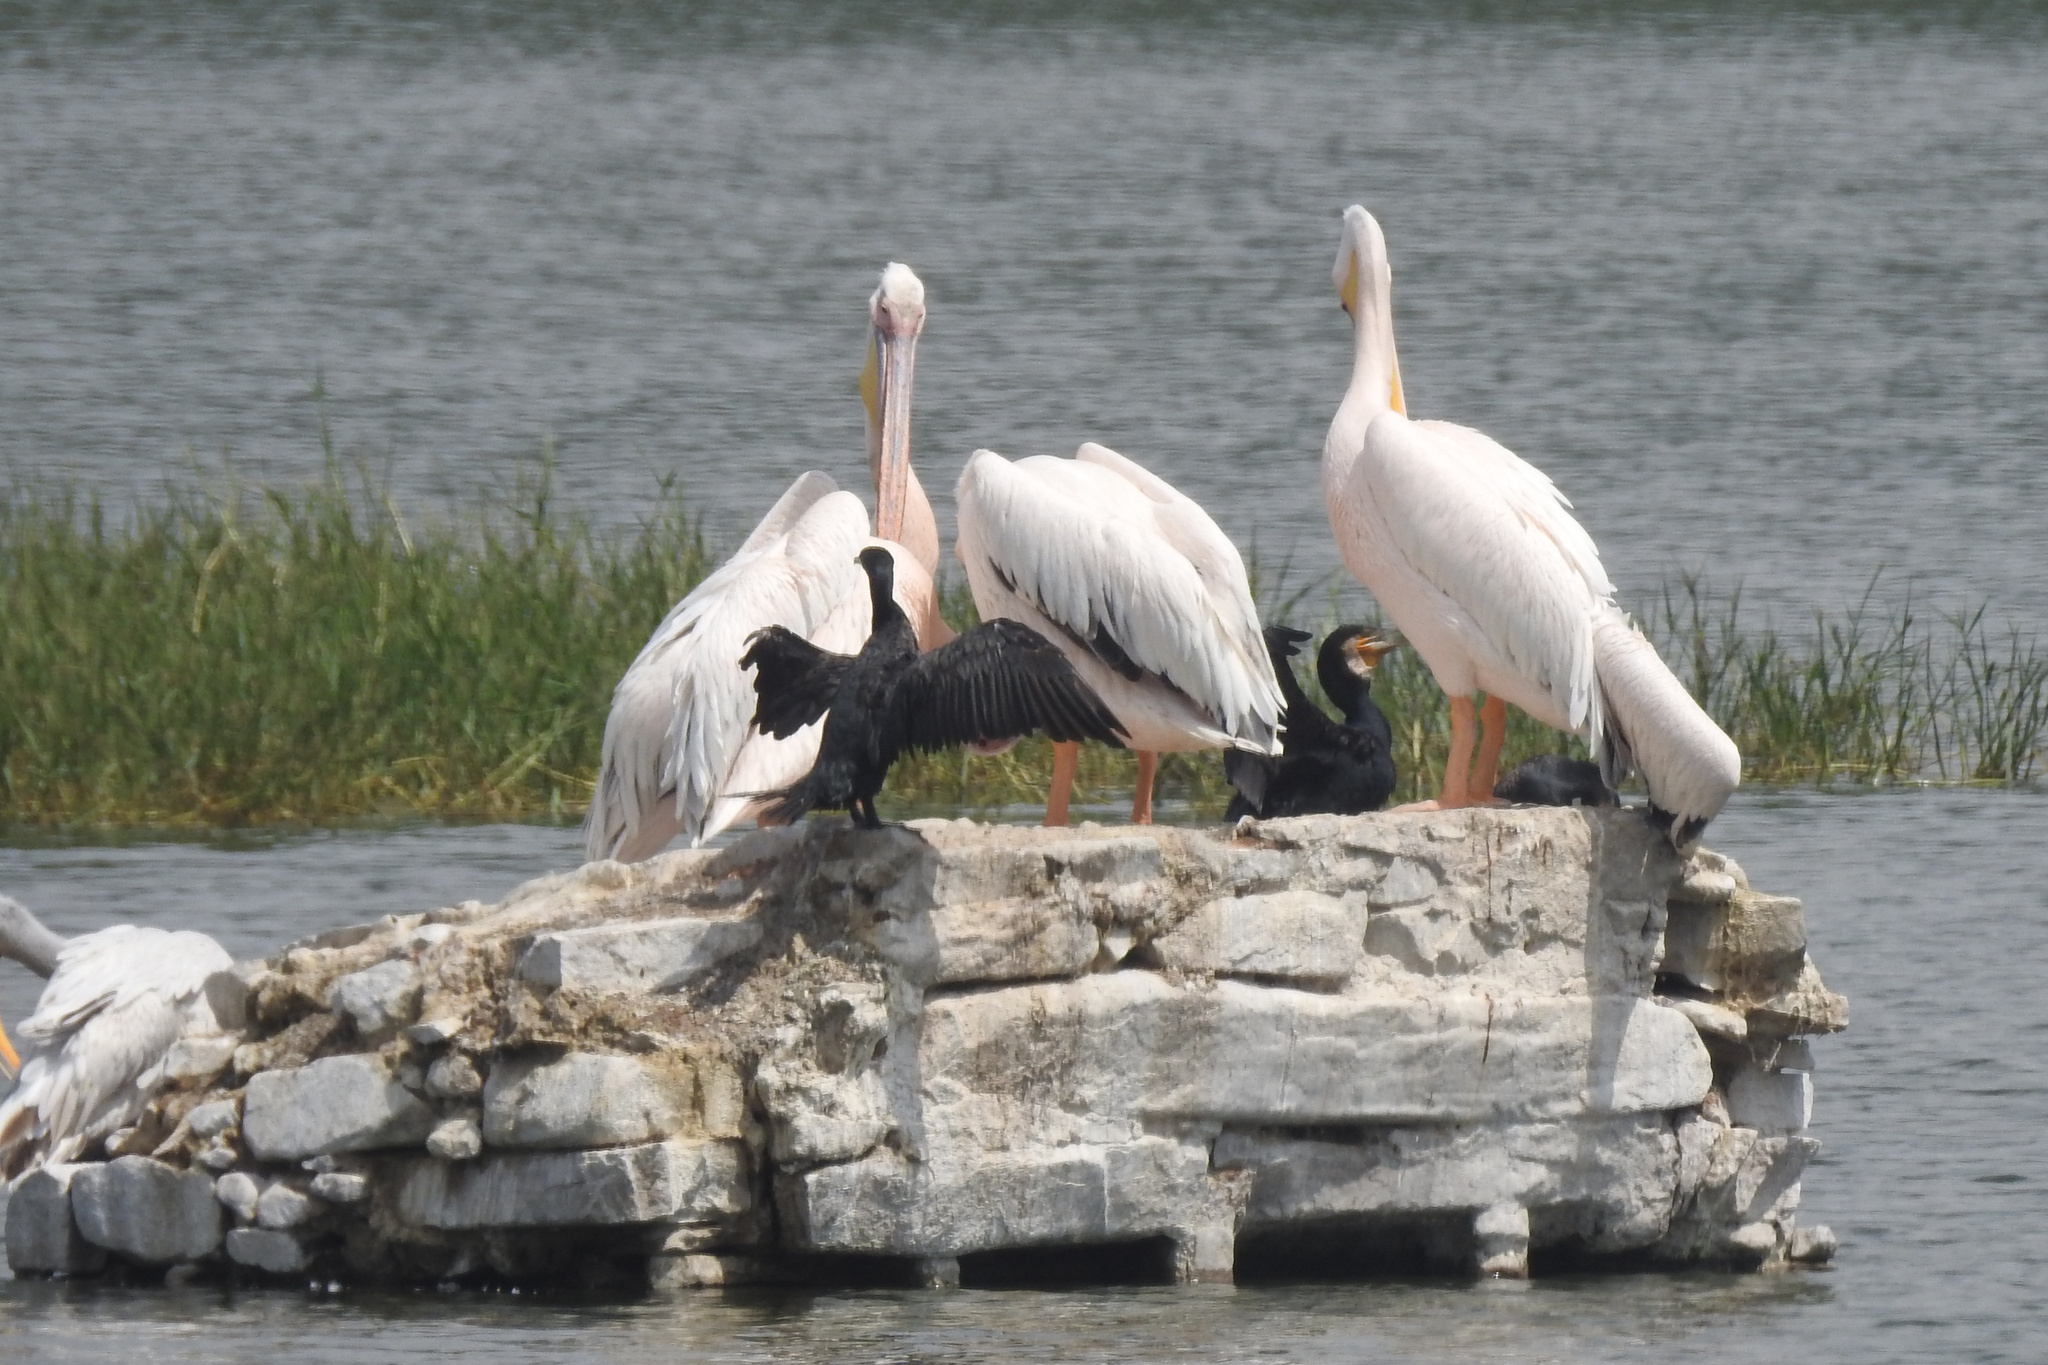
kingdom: Animalia
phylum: Chordata
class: Aves
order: Suliformes
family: Phalacrocoracidae
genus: Phalacrocorax
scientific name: Phalacrocorax carbo
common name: Great cormorant
